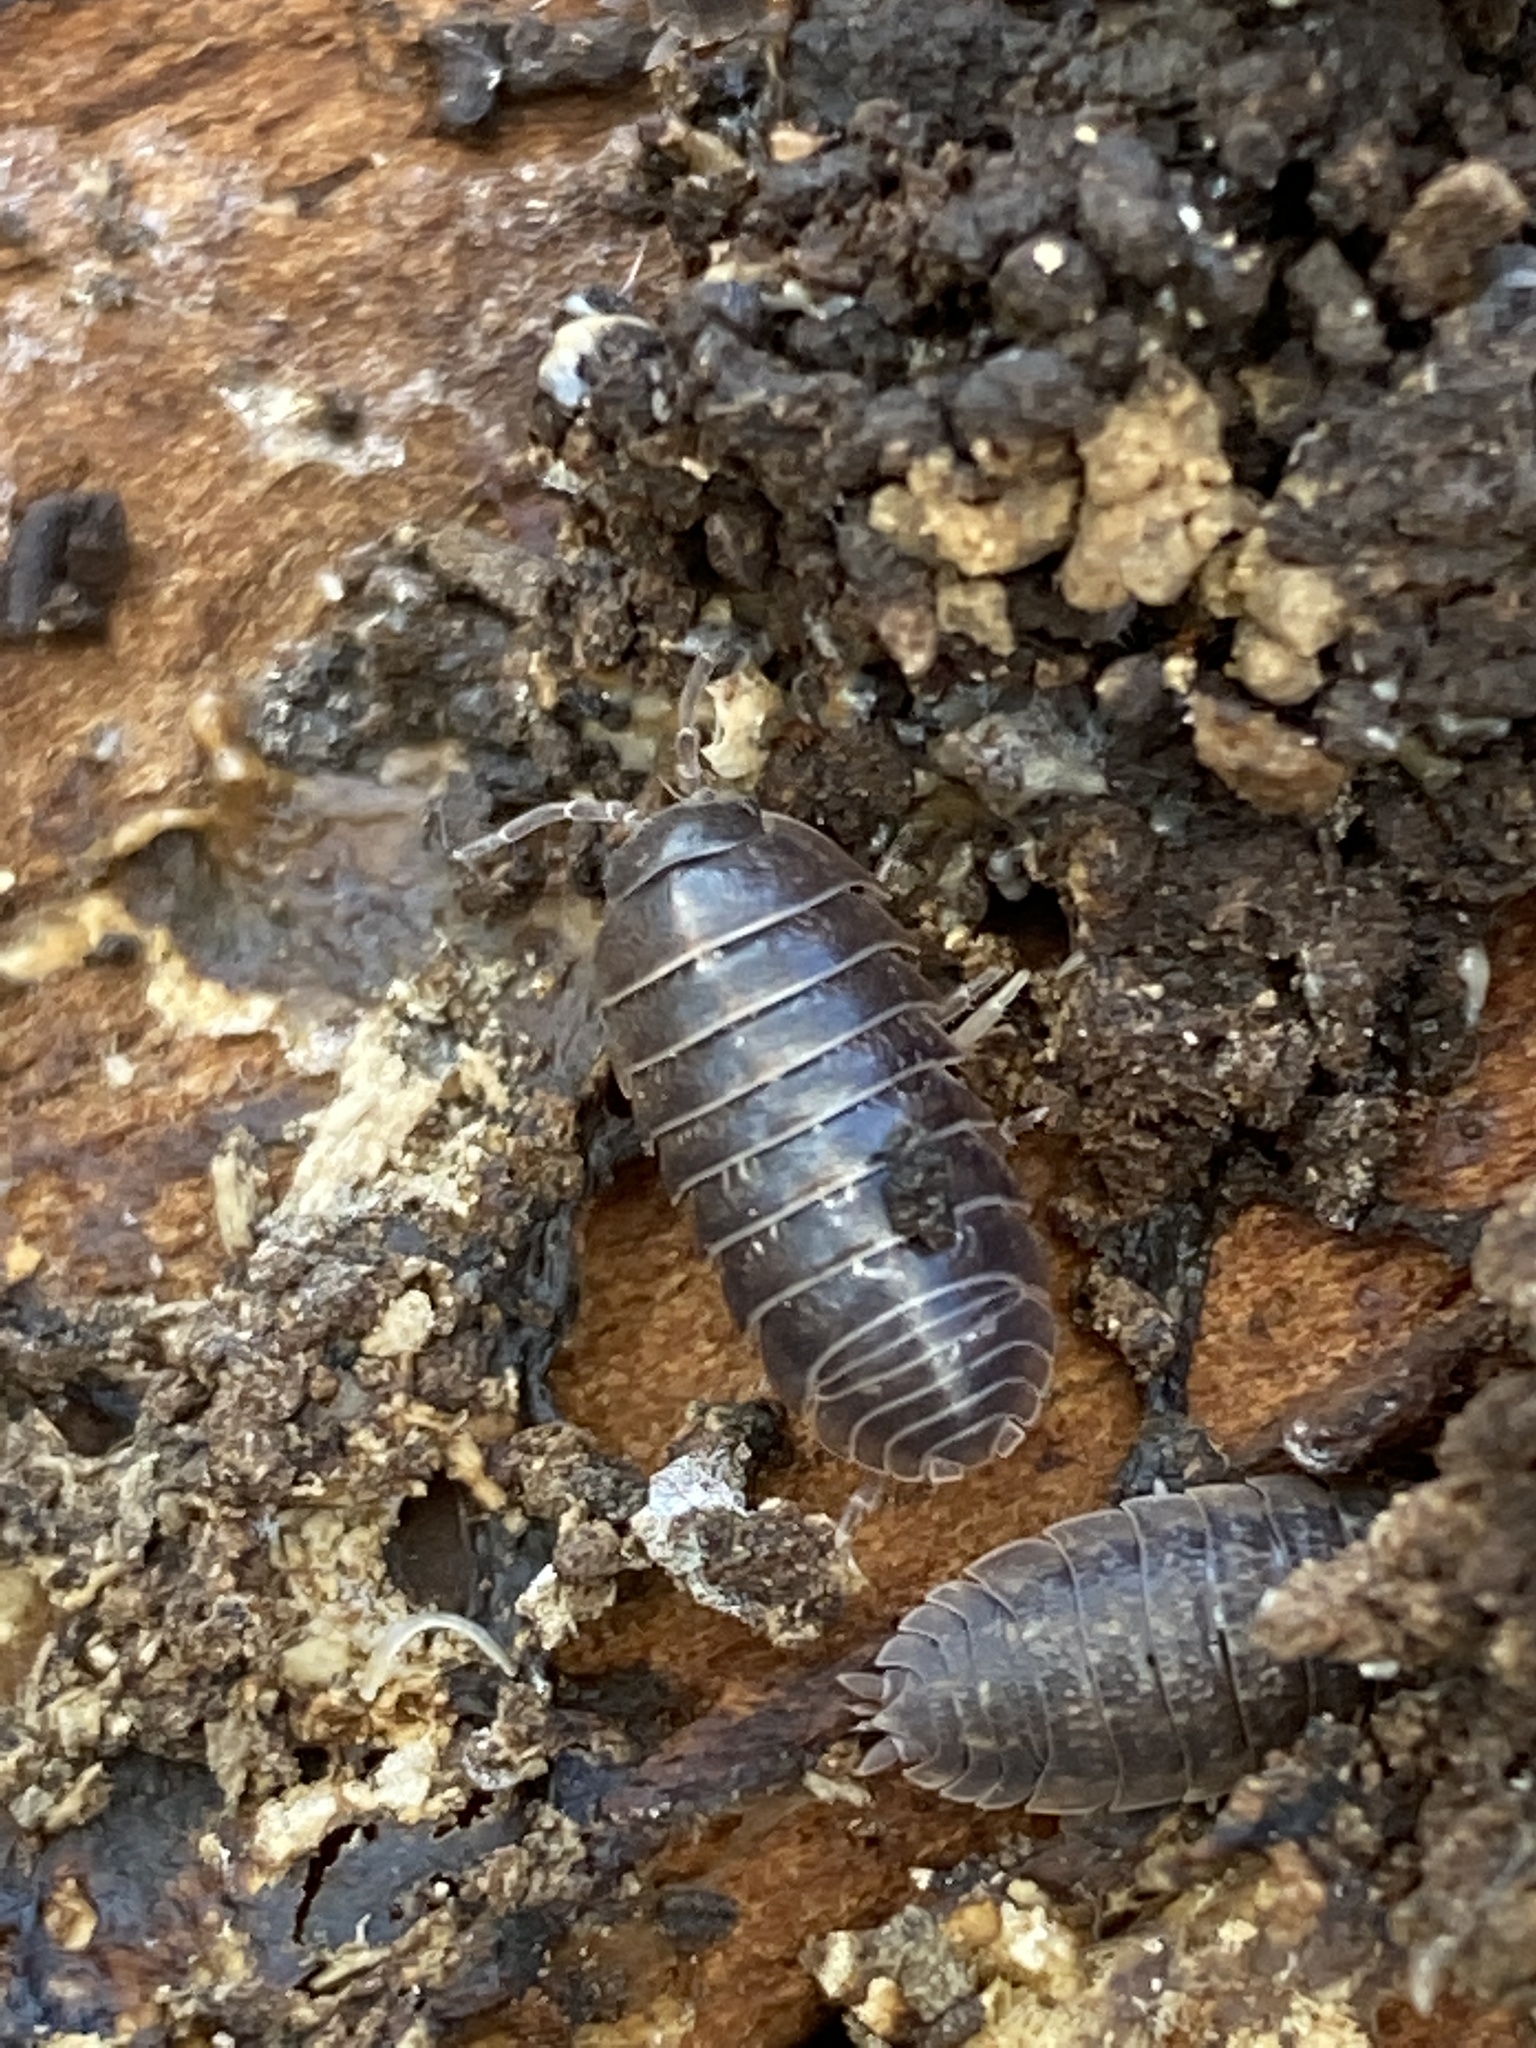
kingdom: Animalia
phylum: Arthropoda
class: Malacostraca
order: Isopoda
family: Armadillidiidae
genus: Armadillidium
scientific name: Armadillidium vulgare
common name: Common pill woodlouse
